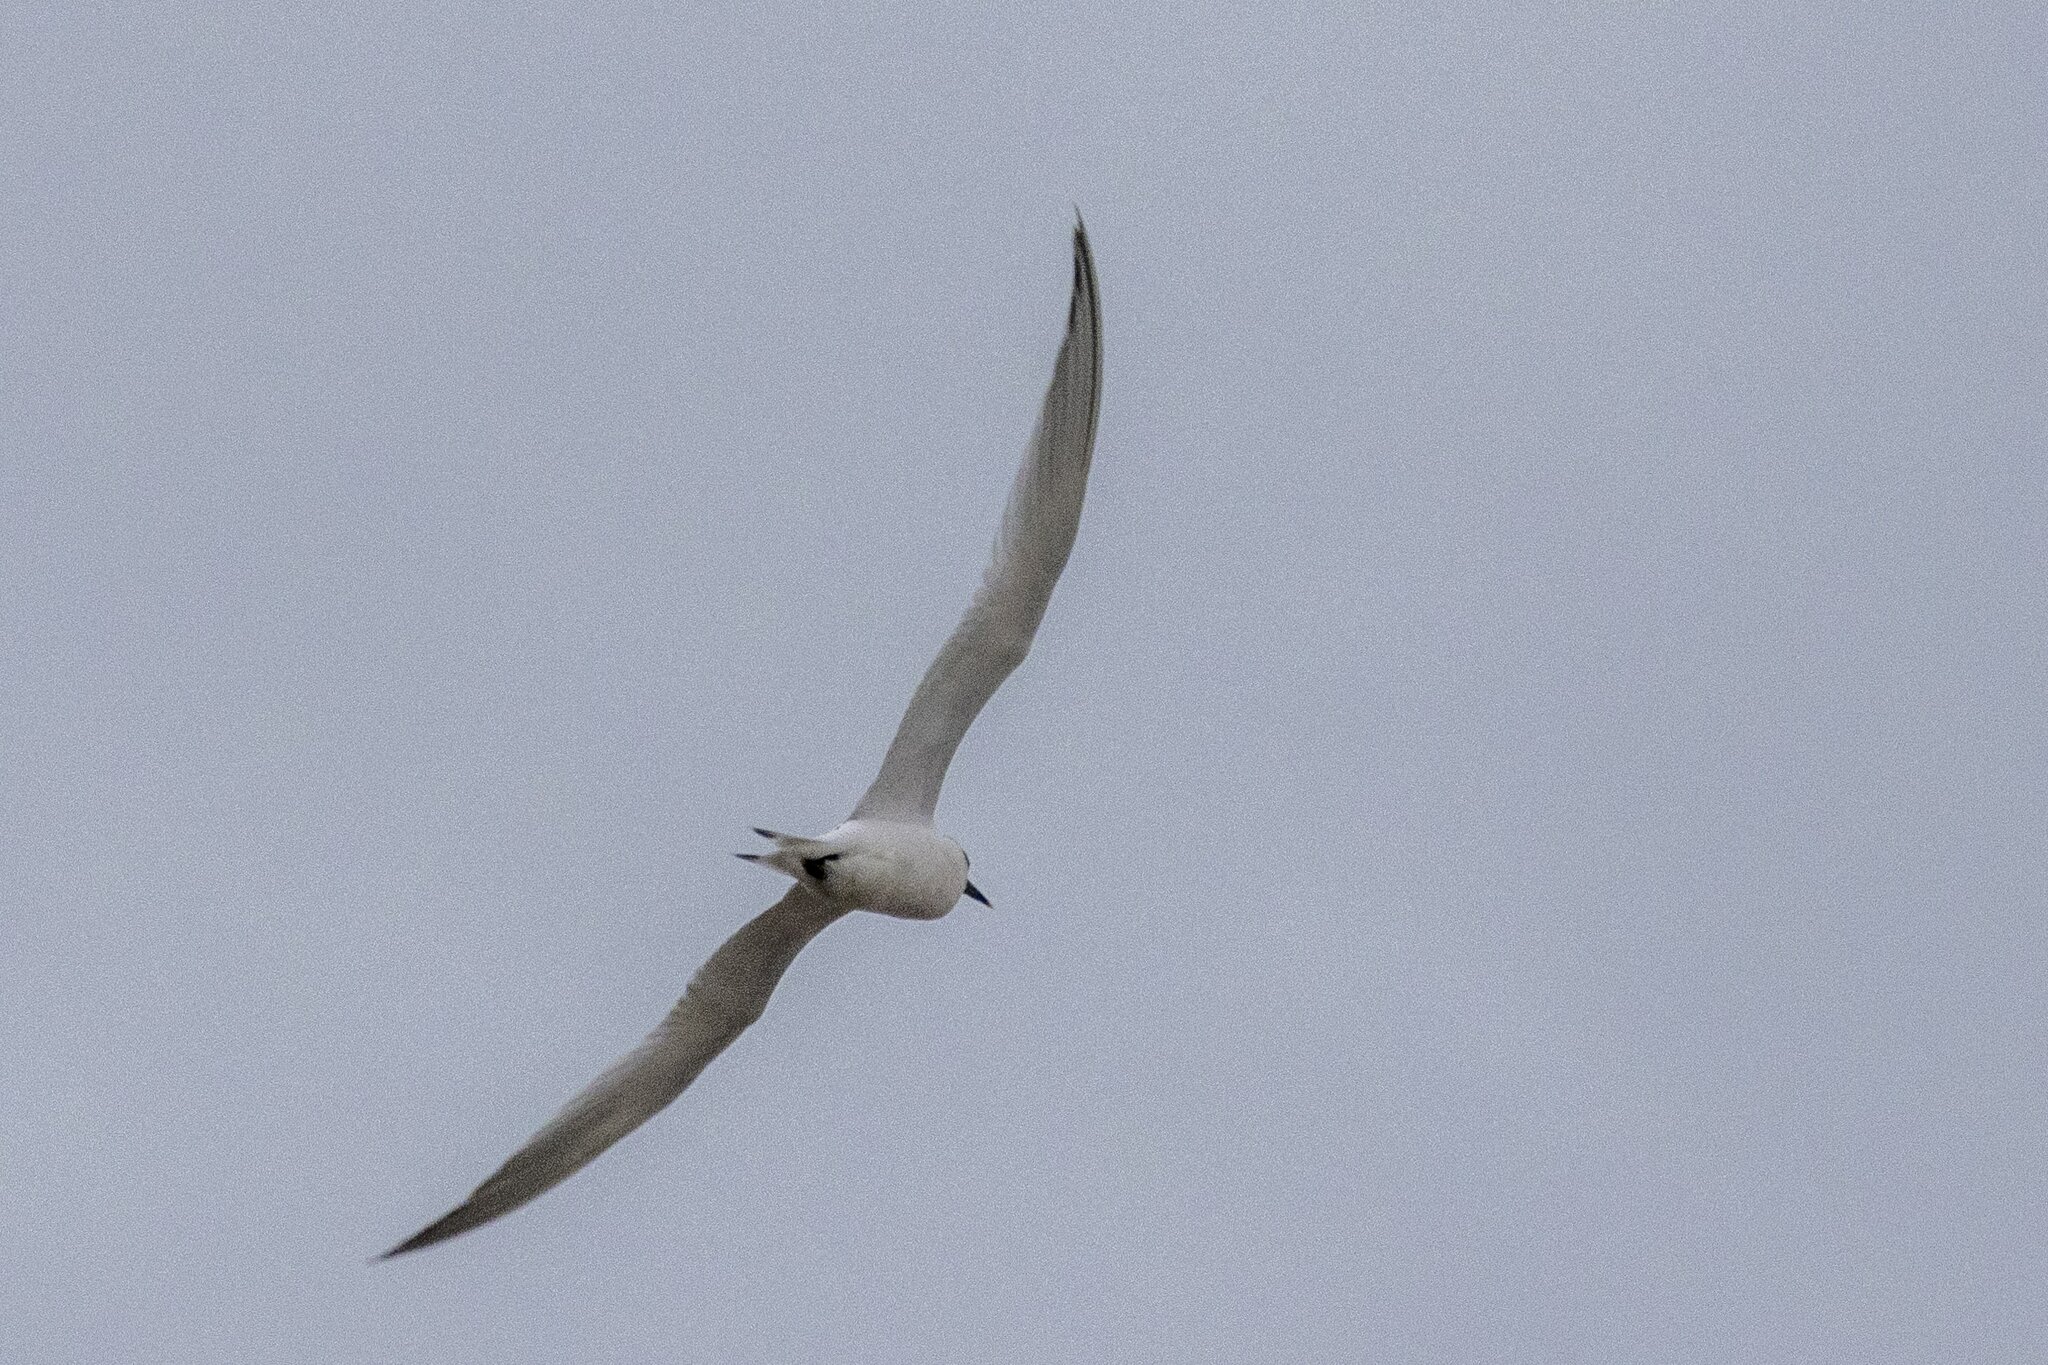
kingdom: Animalia
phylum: Chordata
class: Aves
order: Charadriiformes
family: Laridae
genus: Thalasseus
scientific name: Thalasseus sandvicensis
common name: Sandwich tern
